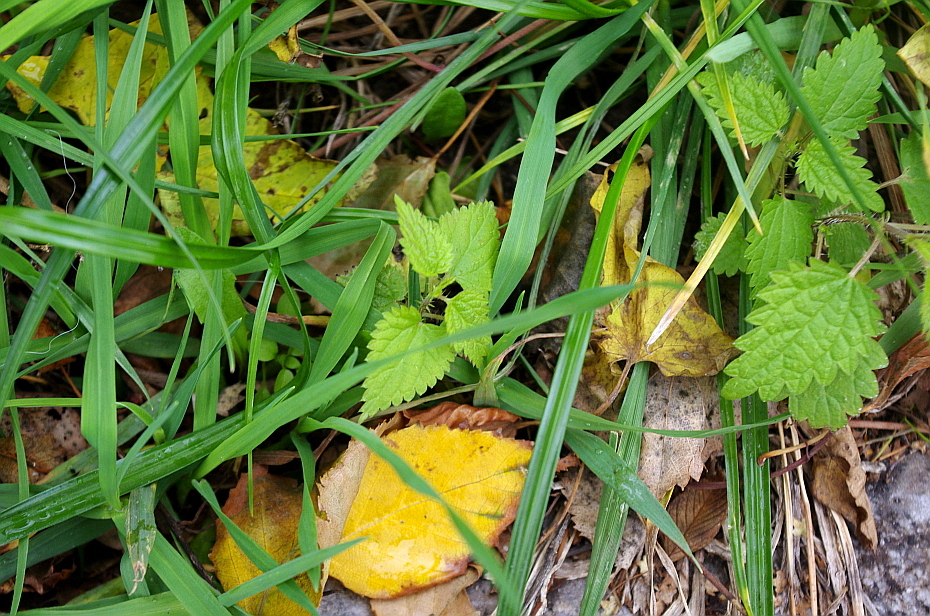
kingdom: Plantae
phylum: Tracheophyta
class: Magnoliopsida
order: Rosales
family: Urticaceae
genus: Urtica
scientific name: Urtica dioica
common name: Common nettle
